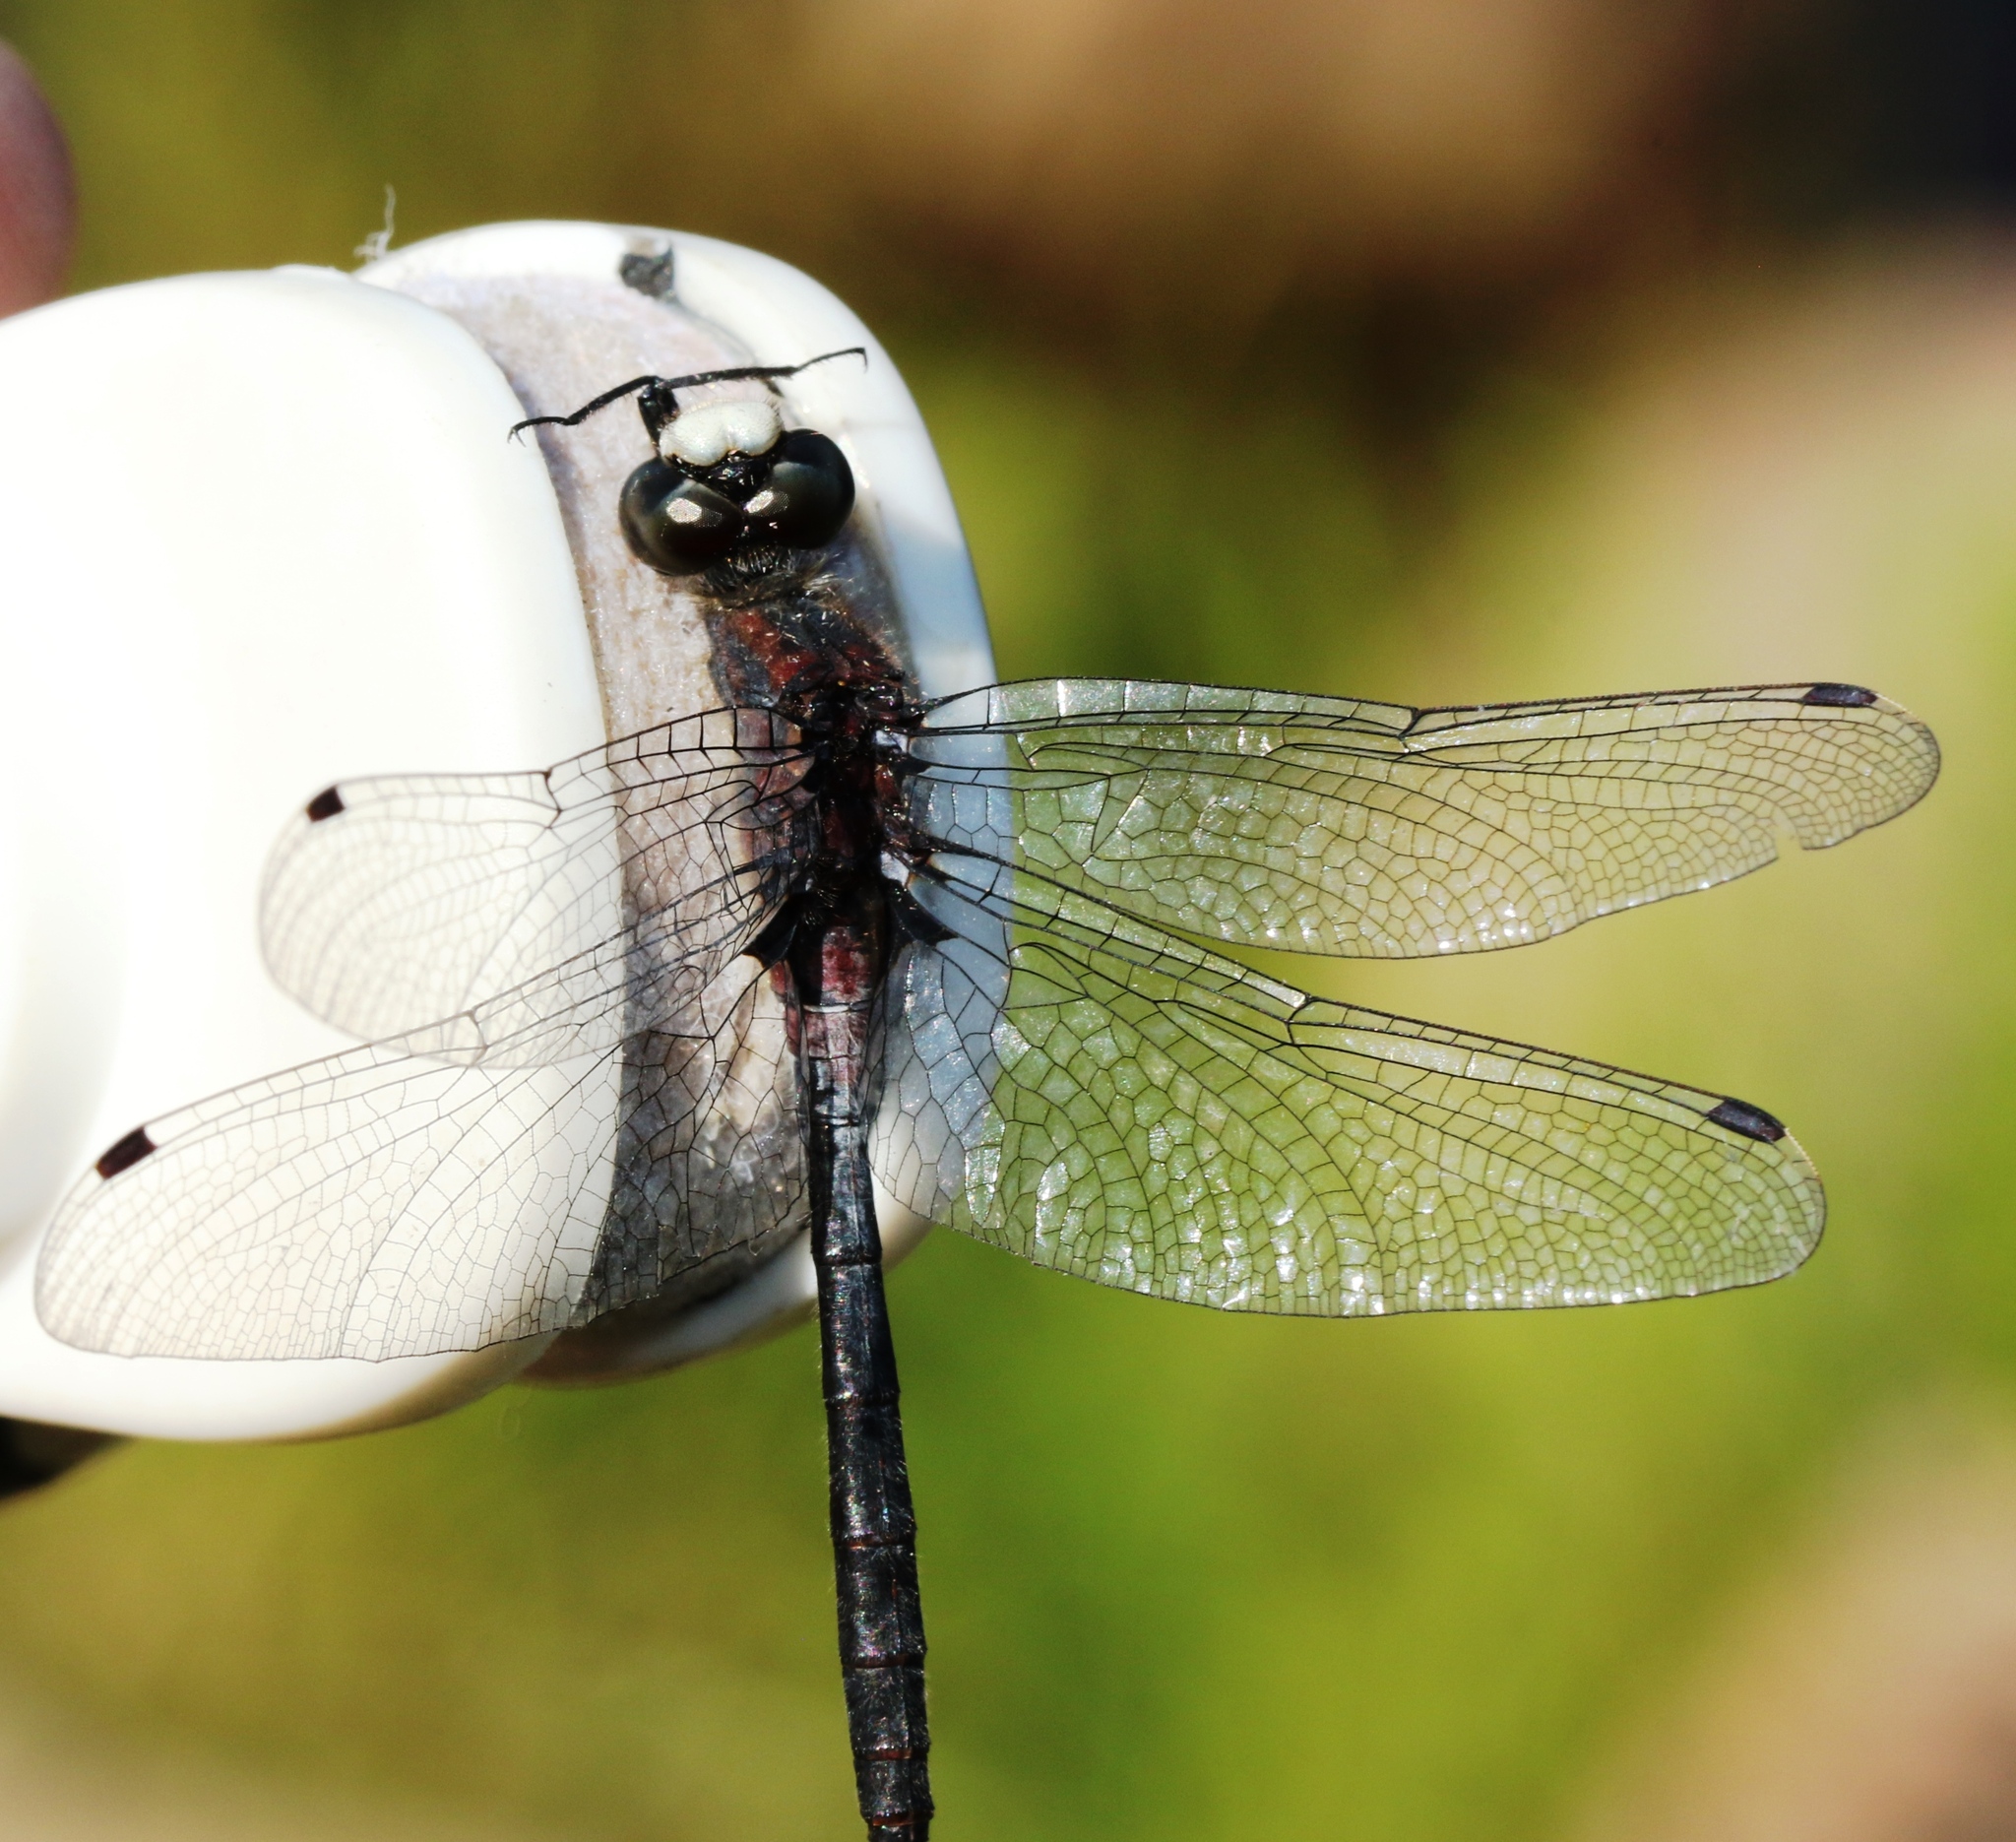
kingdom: Animalia
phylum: Arthropoda
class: Insecta
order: Odonata
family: Libellulidae
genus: Leucorrhinia
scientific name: Leucorrhinia proxima
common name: Belted whiteface
